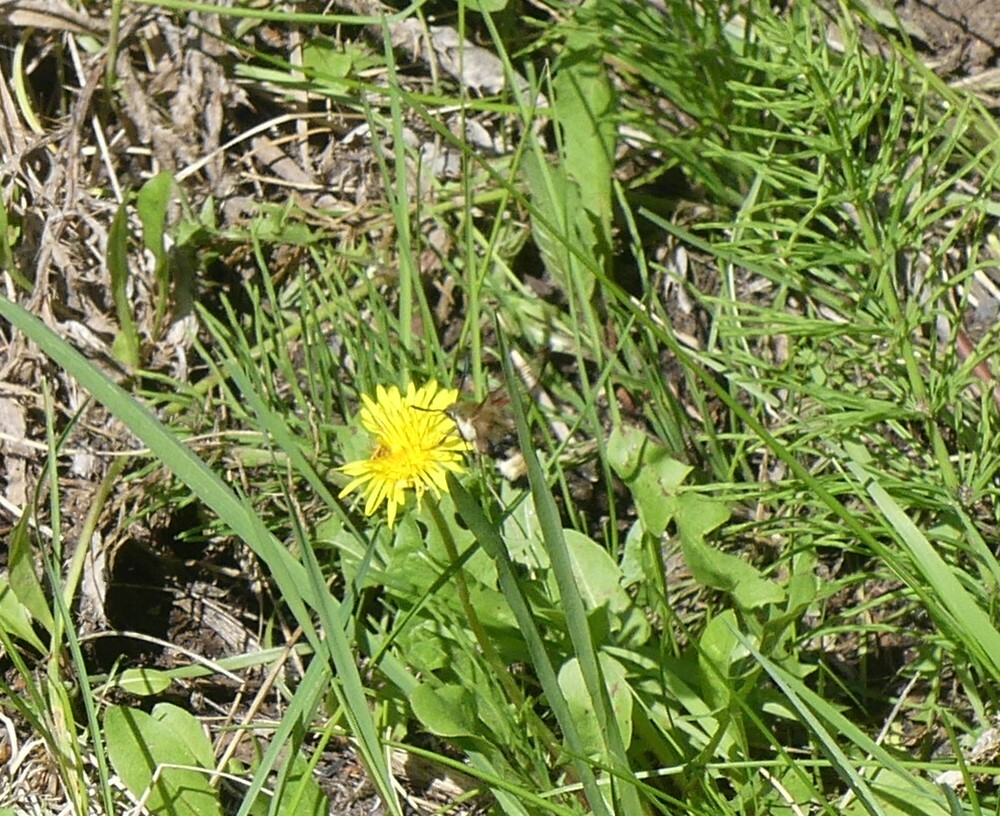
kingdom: Animalia
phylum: Arthropoda
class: Insecta
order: Lepidoptera
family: Sphingidae
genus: Hemaris
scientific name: Hemaris thetis
